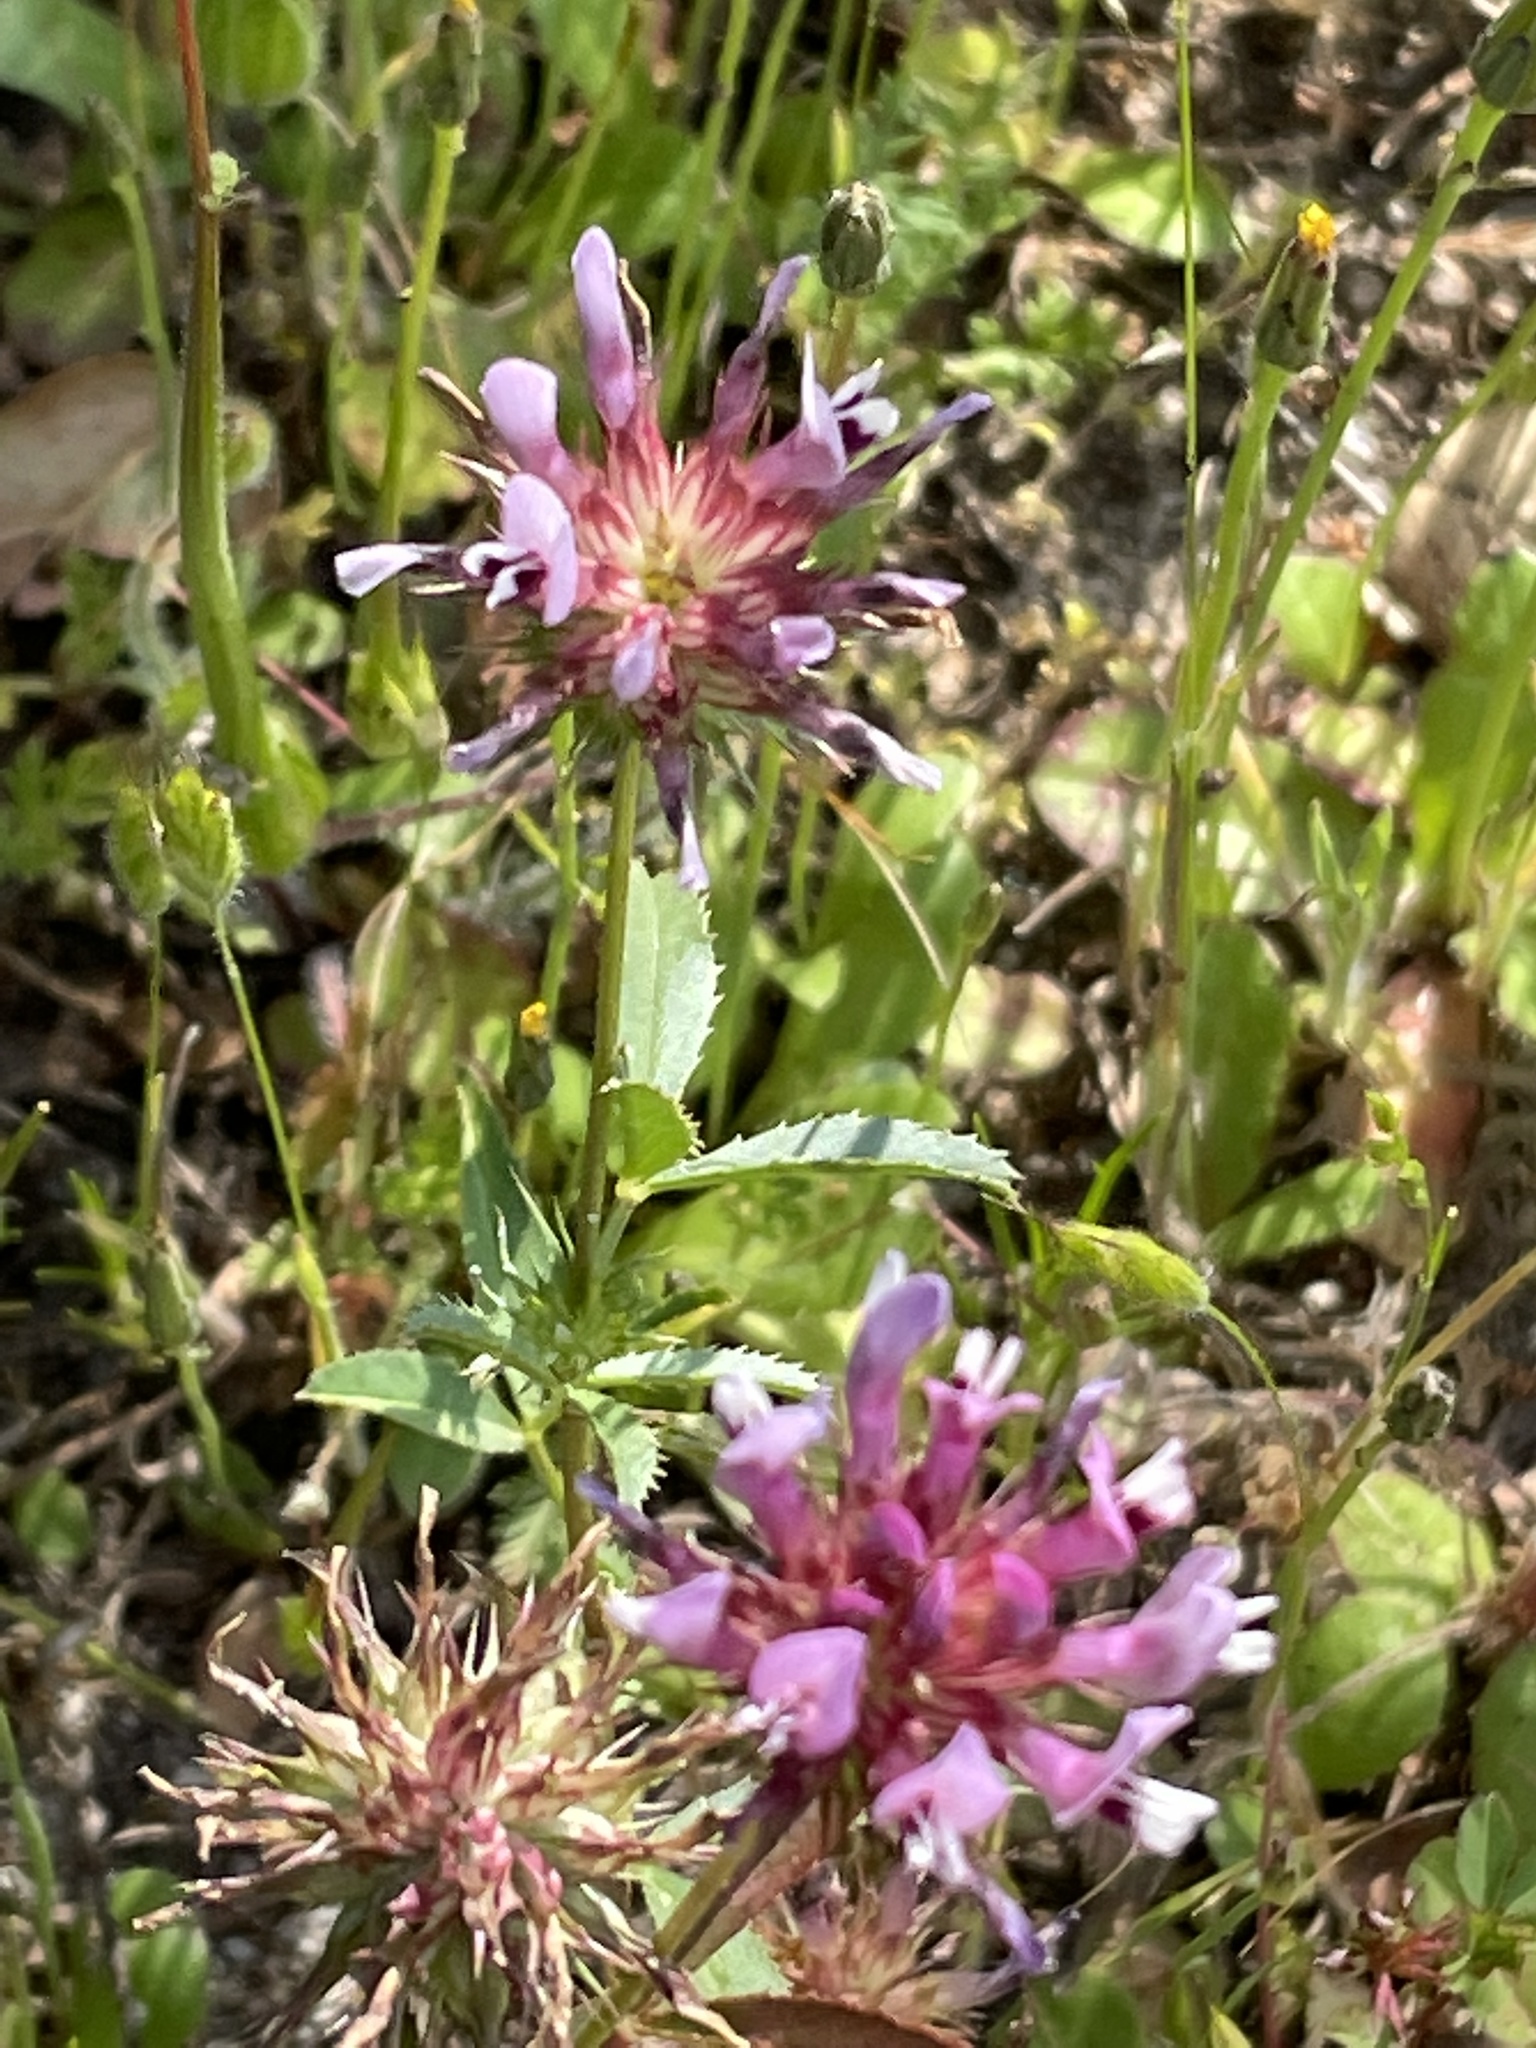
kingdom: Plantae
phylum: Tracheophyta
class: Magnoliopsida
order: Fabales
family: Fabaceae
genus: Trifolium
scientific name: Trifolium willdenovii
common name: Tomcat clover
